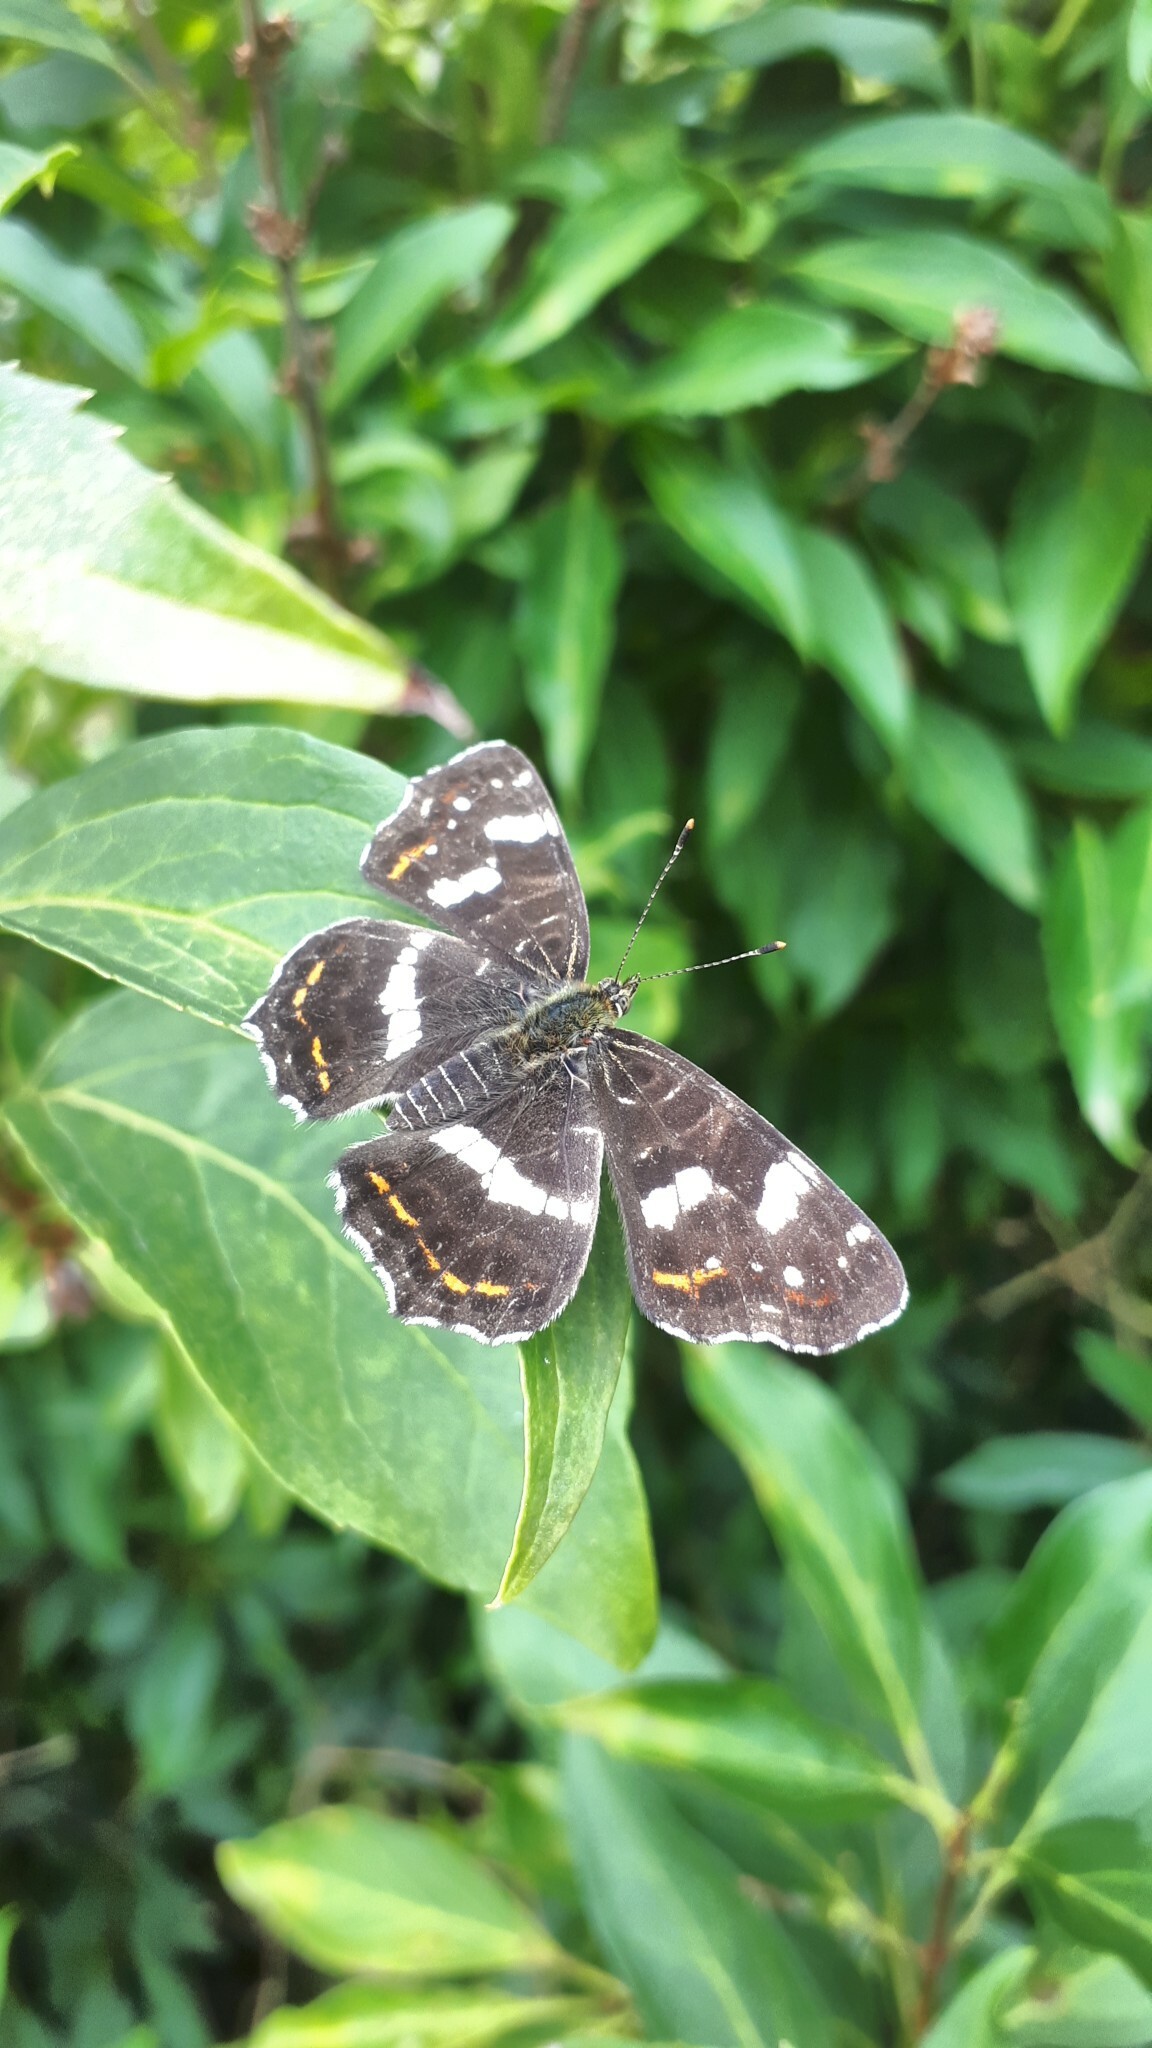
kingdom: Animalia
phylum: Arthropoda
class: Insecta
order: Lepidoptera
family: Nymphalidae
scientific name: Nymphalidae
